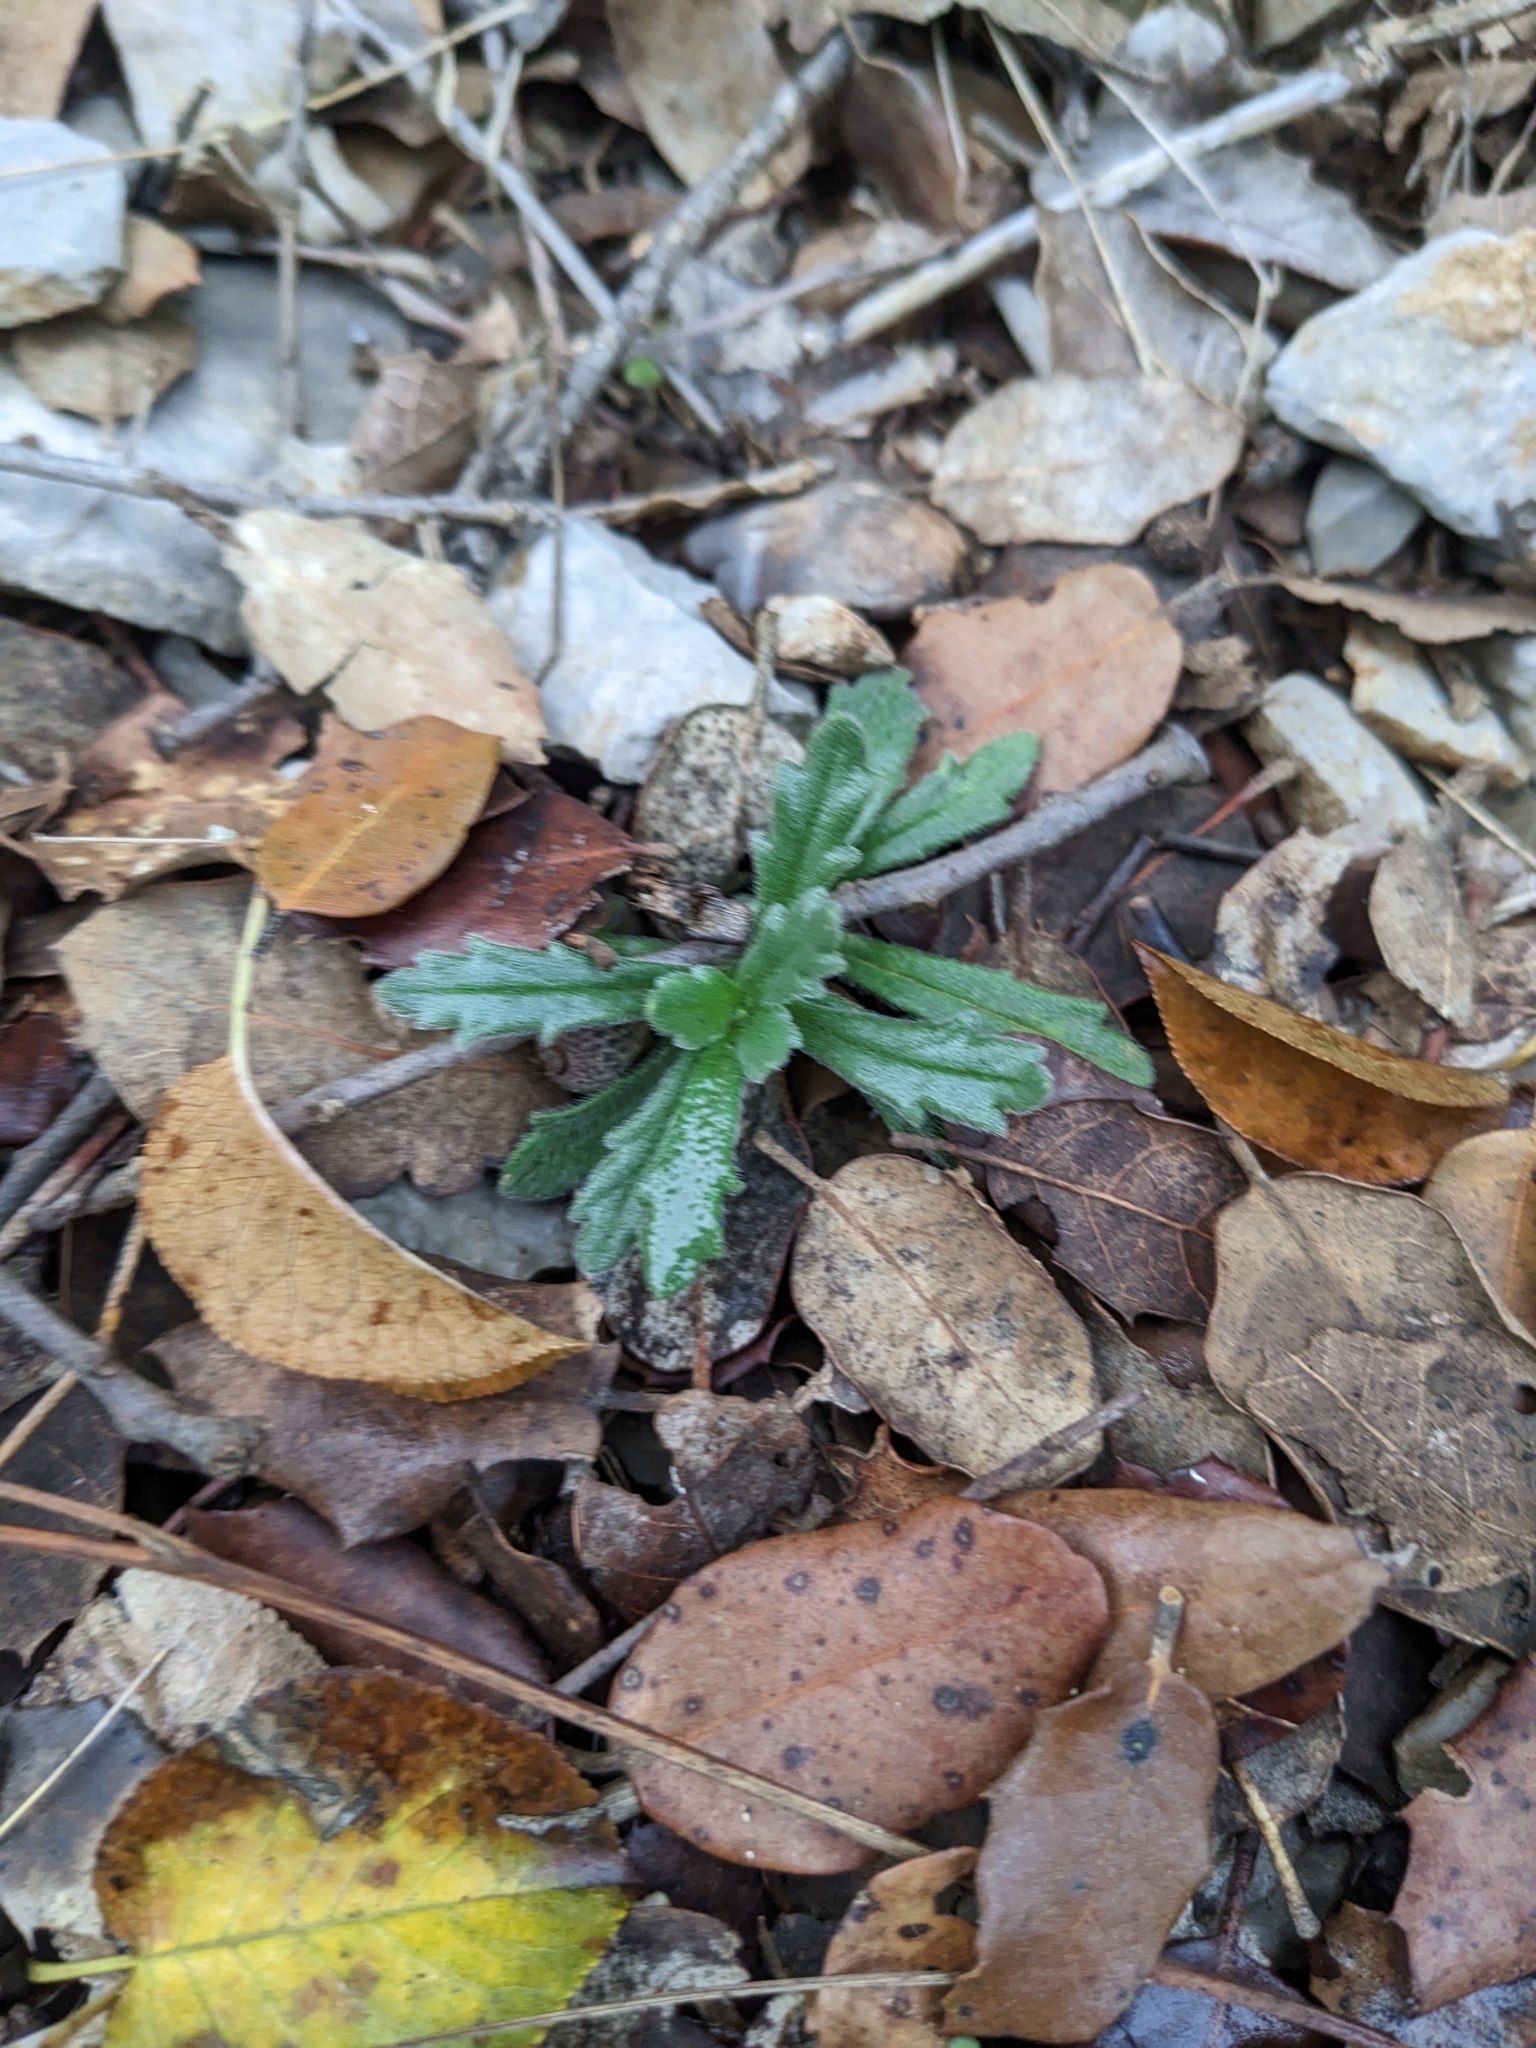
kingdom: Plantae
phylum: Tracheophyta
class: Magnoliopsida
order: Lamiales
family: Lamiaceae
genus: Ajuga
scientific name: Ajuga iva
